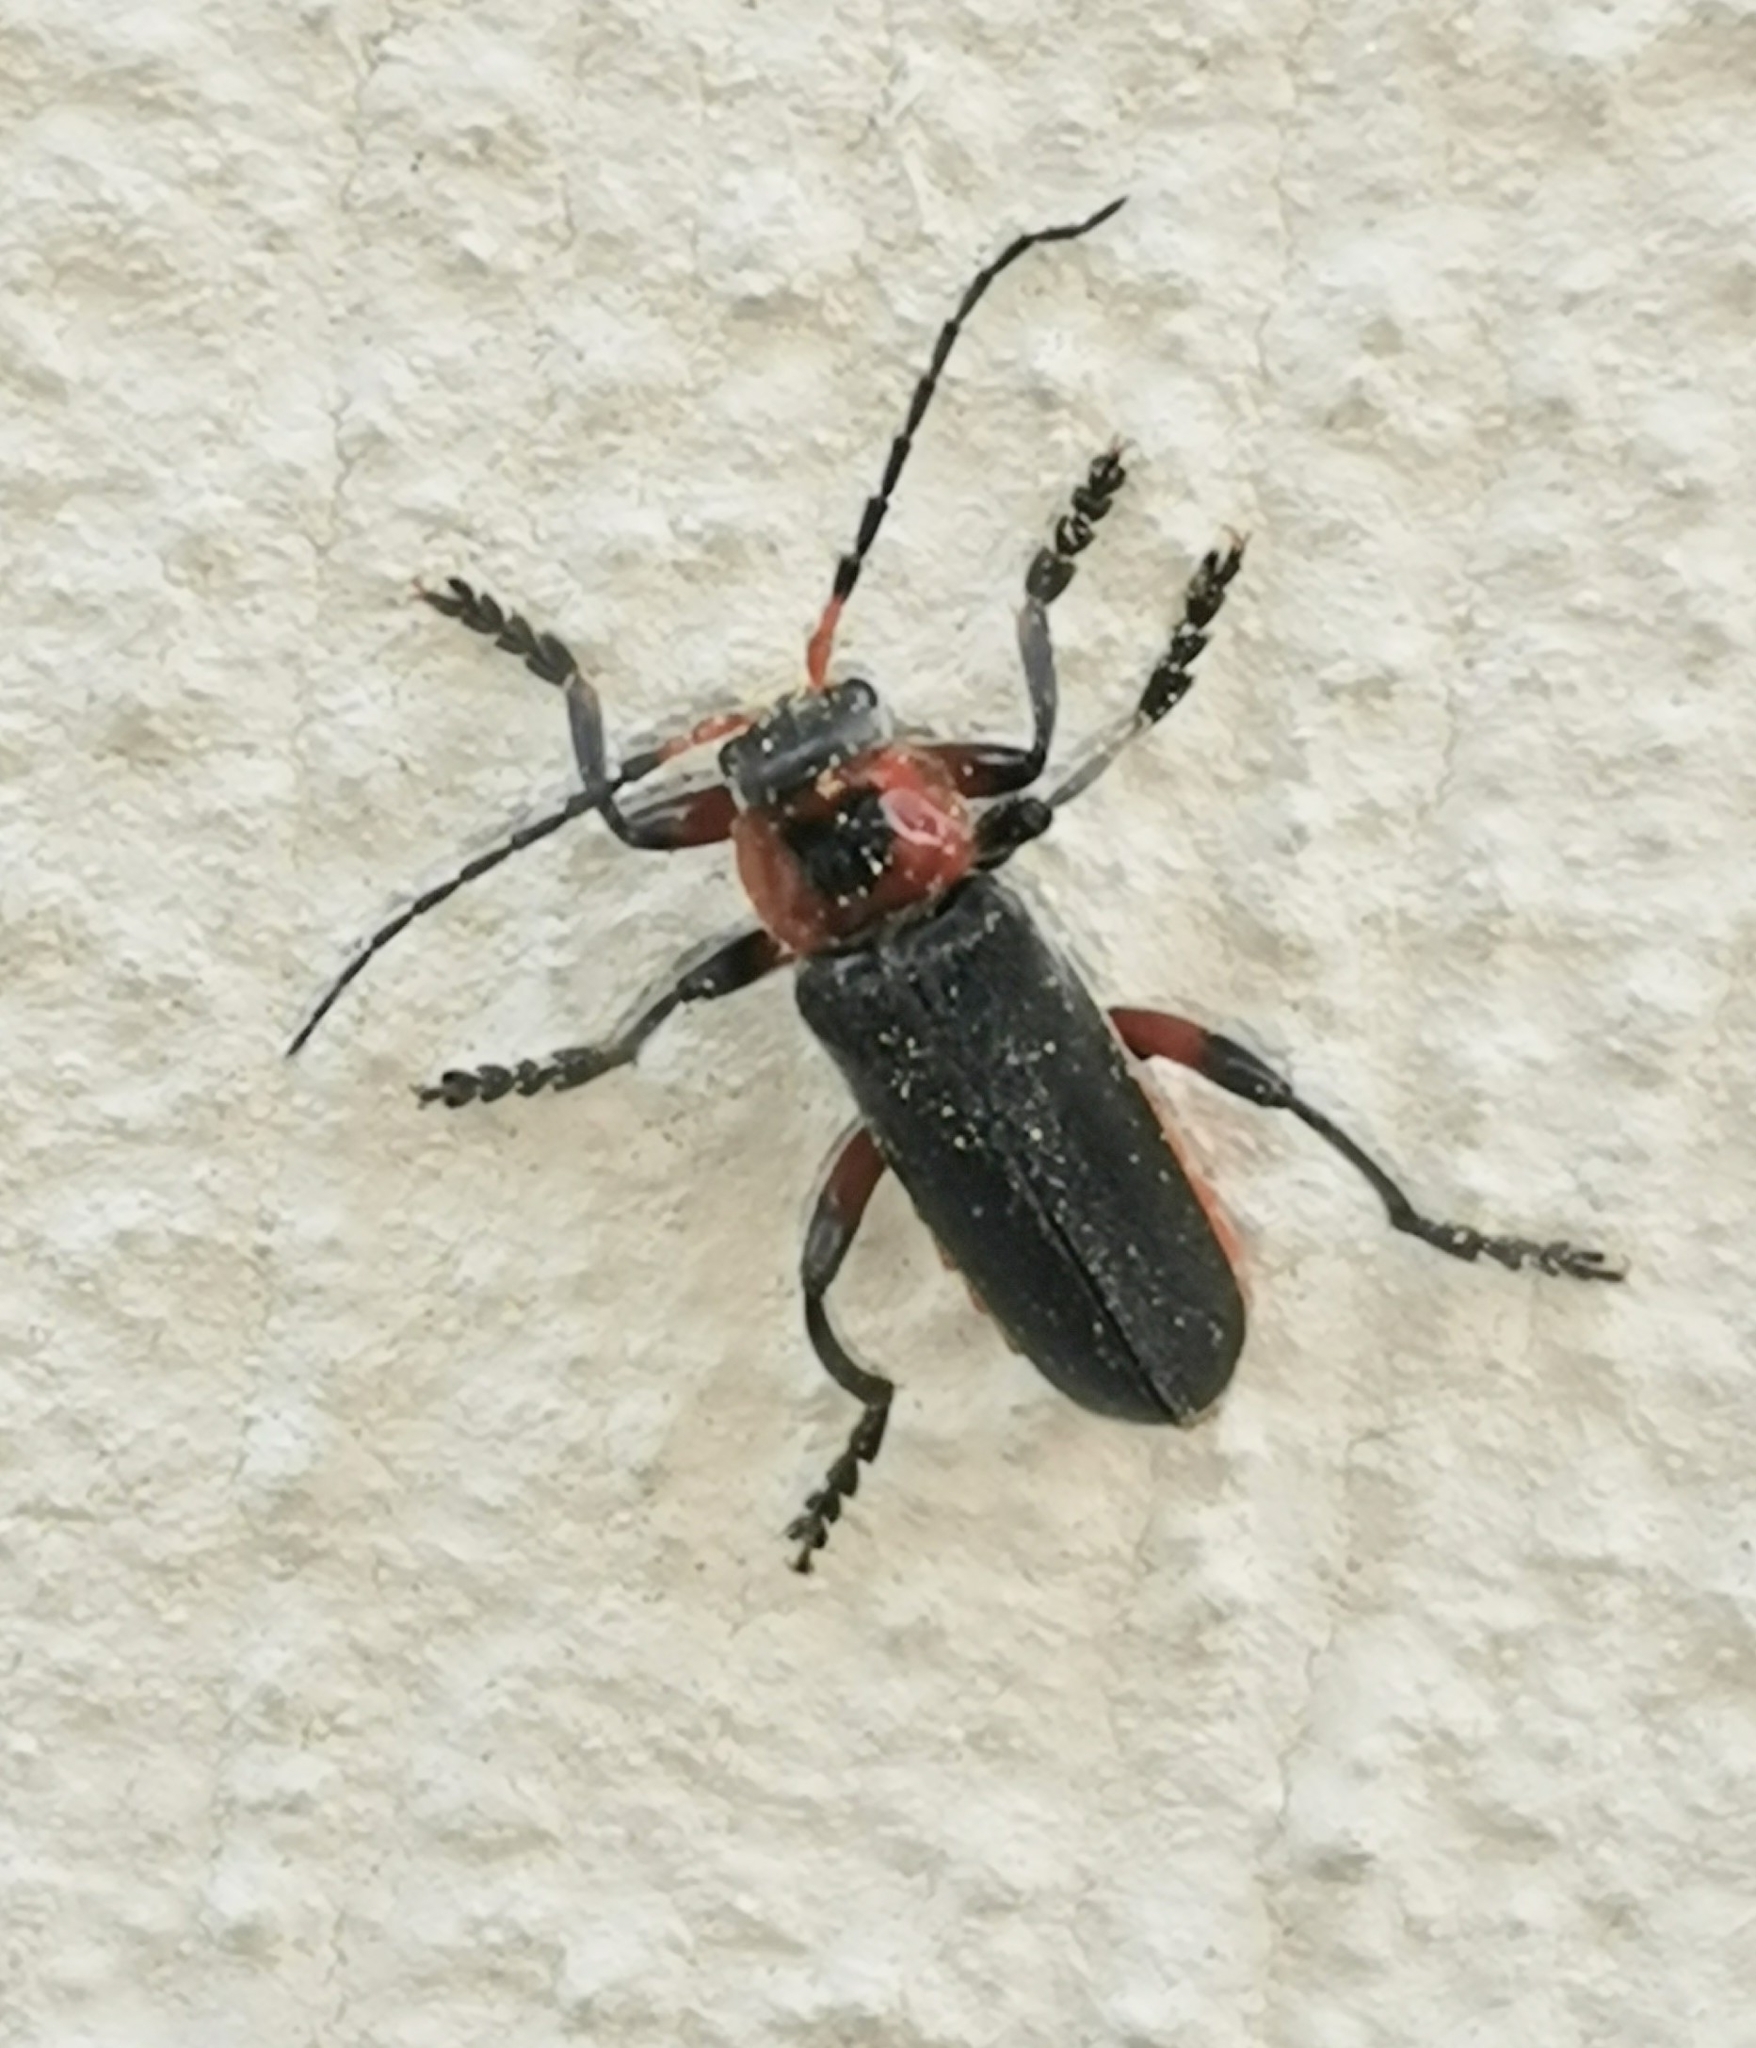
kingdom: Animalia
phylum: Arthropoda
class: Insecta
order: Coleoptera
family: Cantharidae
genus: Cantharis
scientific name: Cantharis rustica
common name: Soldier beetle
